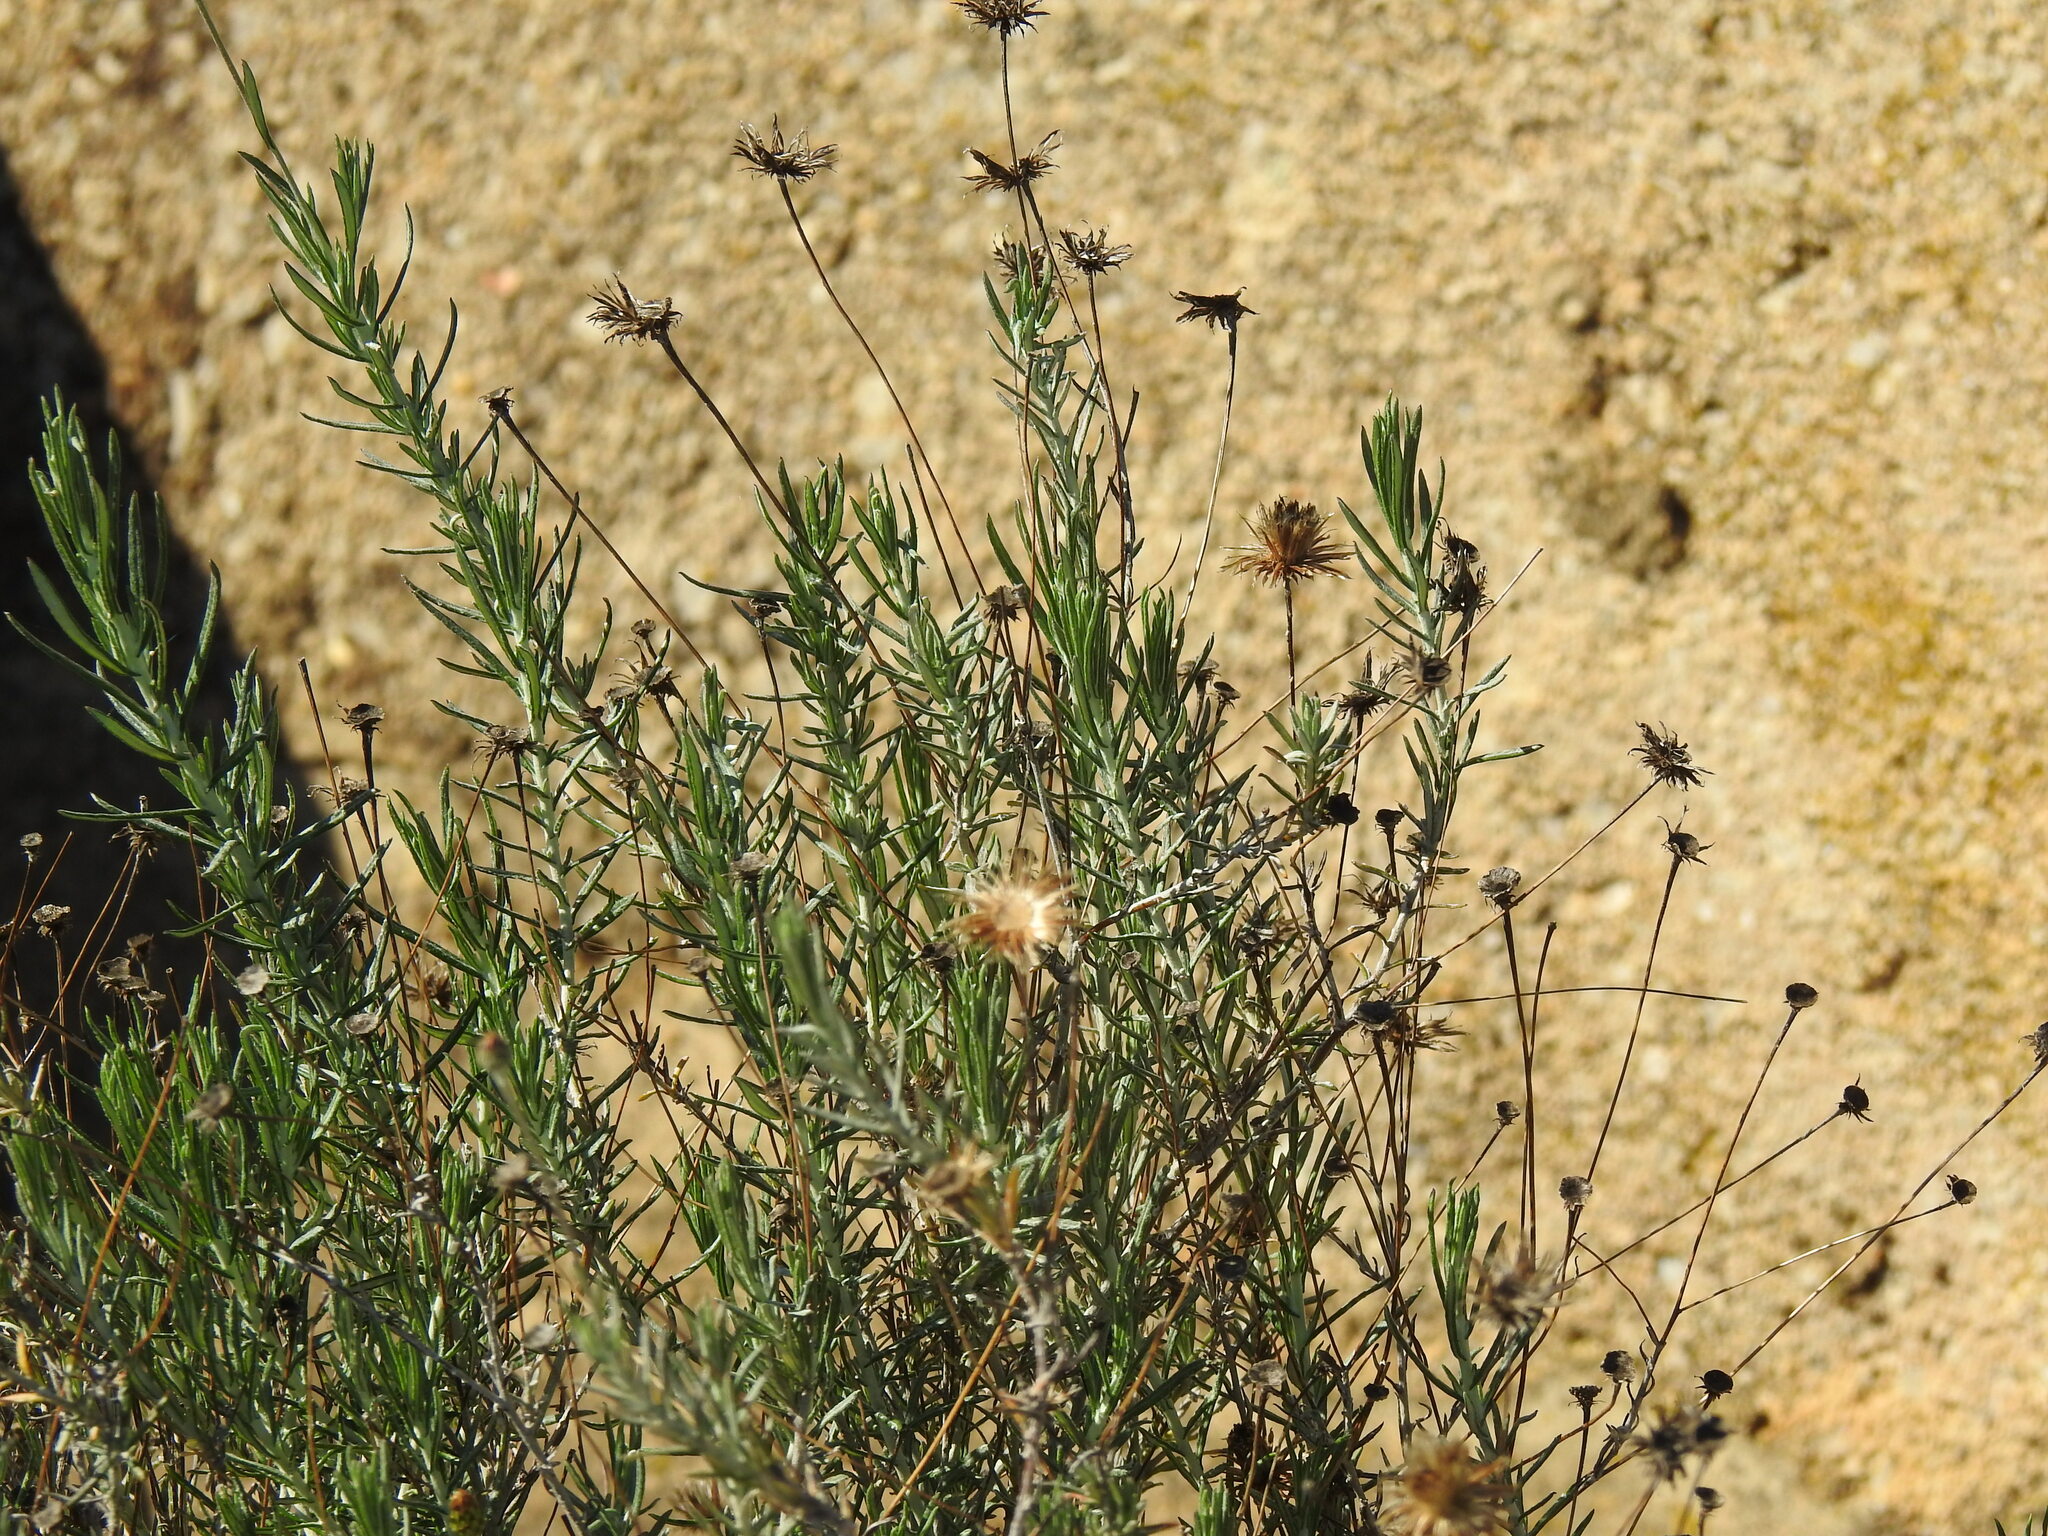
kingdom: Plantae
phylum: Tracheophyta
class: Magnoliopsida
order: Asterales
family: Asteraceae
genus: Phagnalon
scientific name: Phagnalon saxatile
